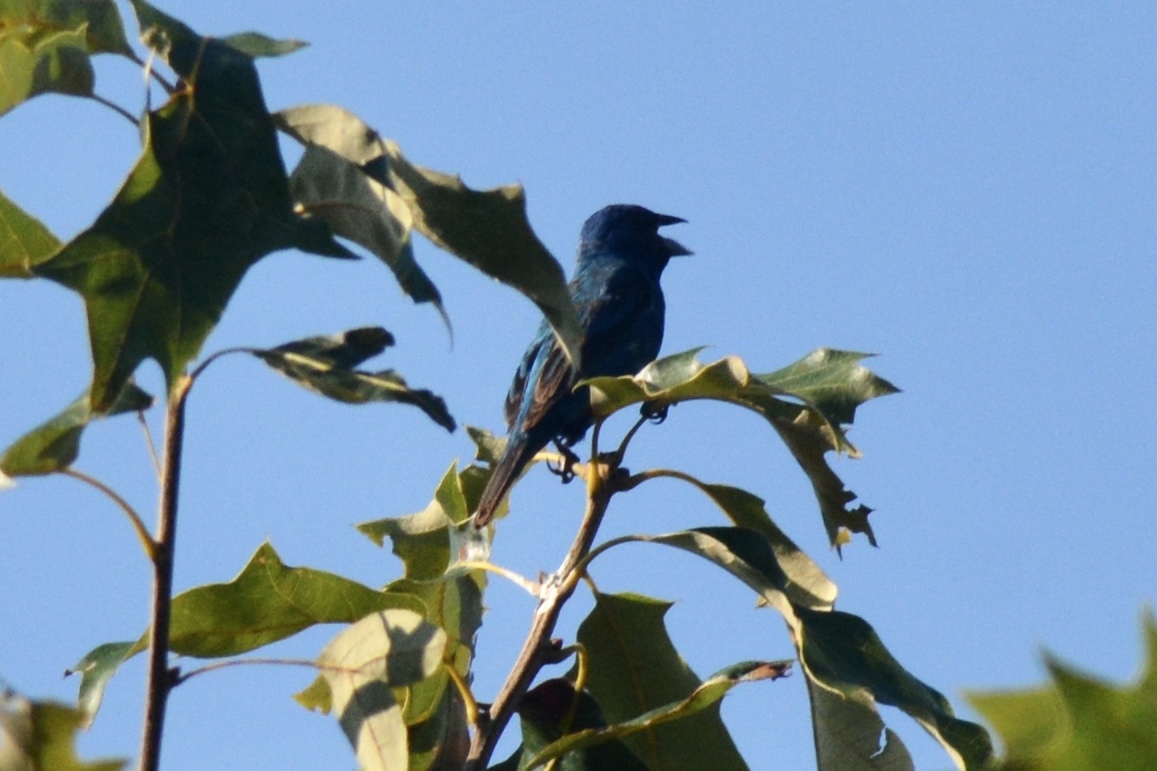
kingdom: Animalia
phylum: Chordata
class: Aves
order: Passeriformes
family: Cardinalidae
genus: Passerina
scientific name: Passerina cyanea
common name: Indigo bunting
